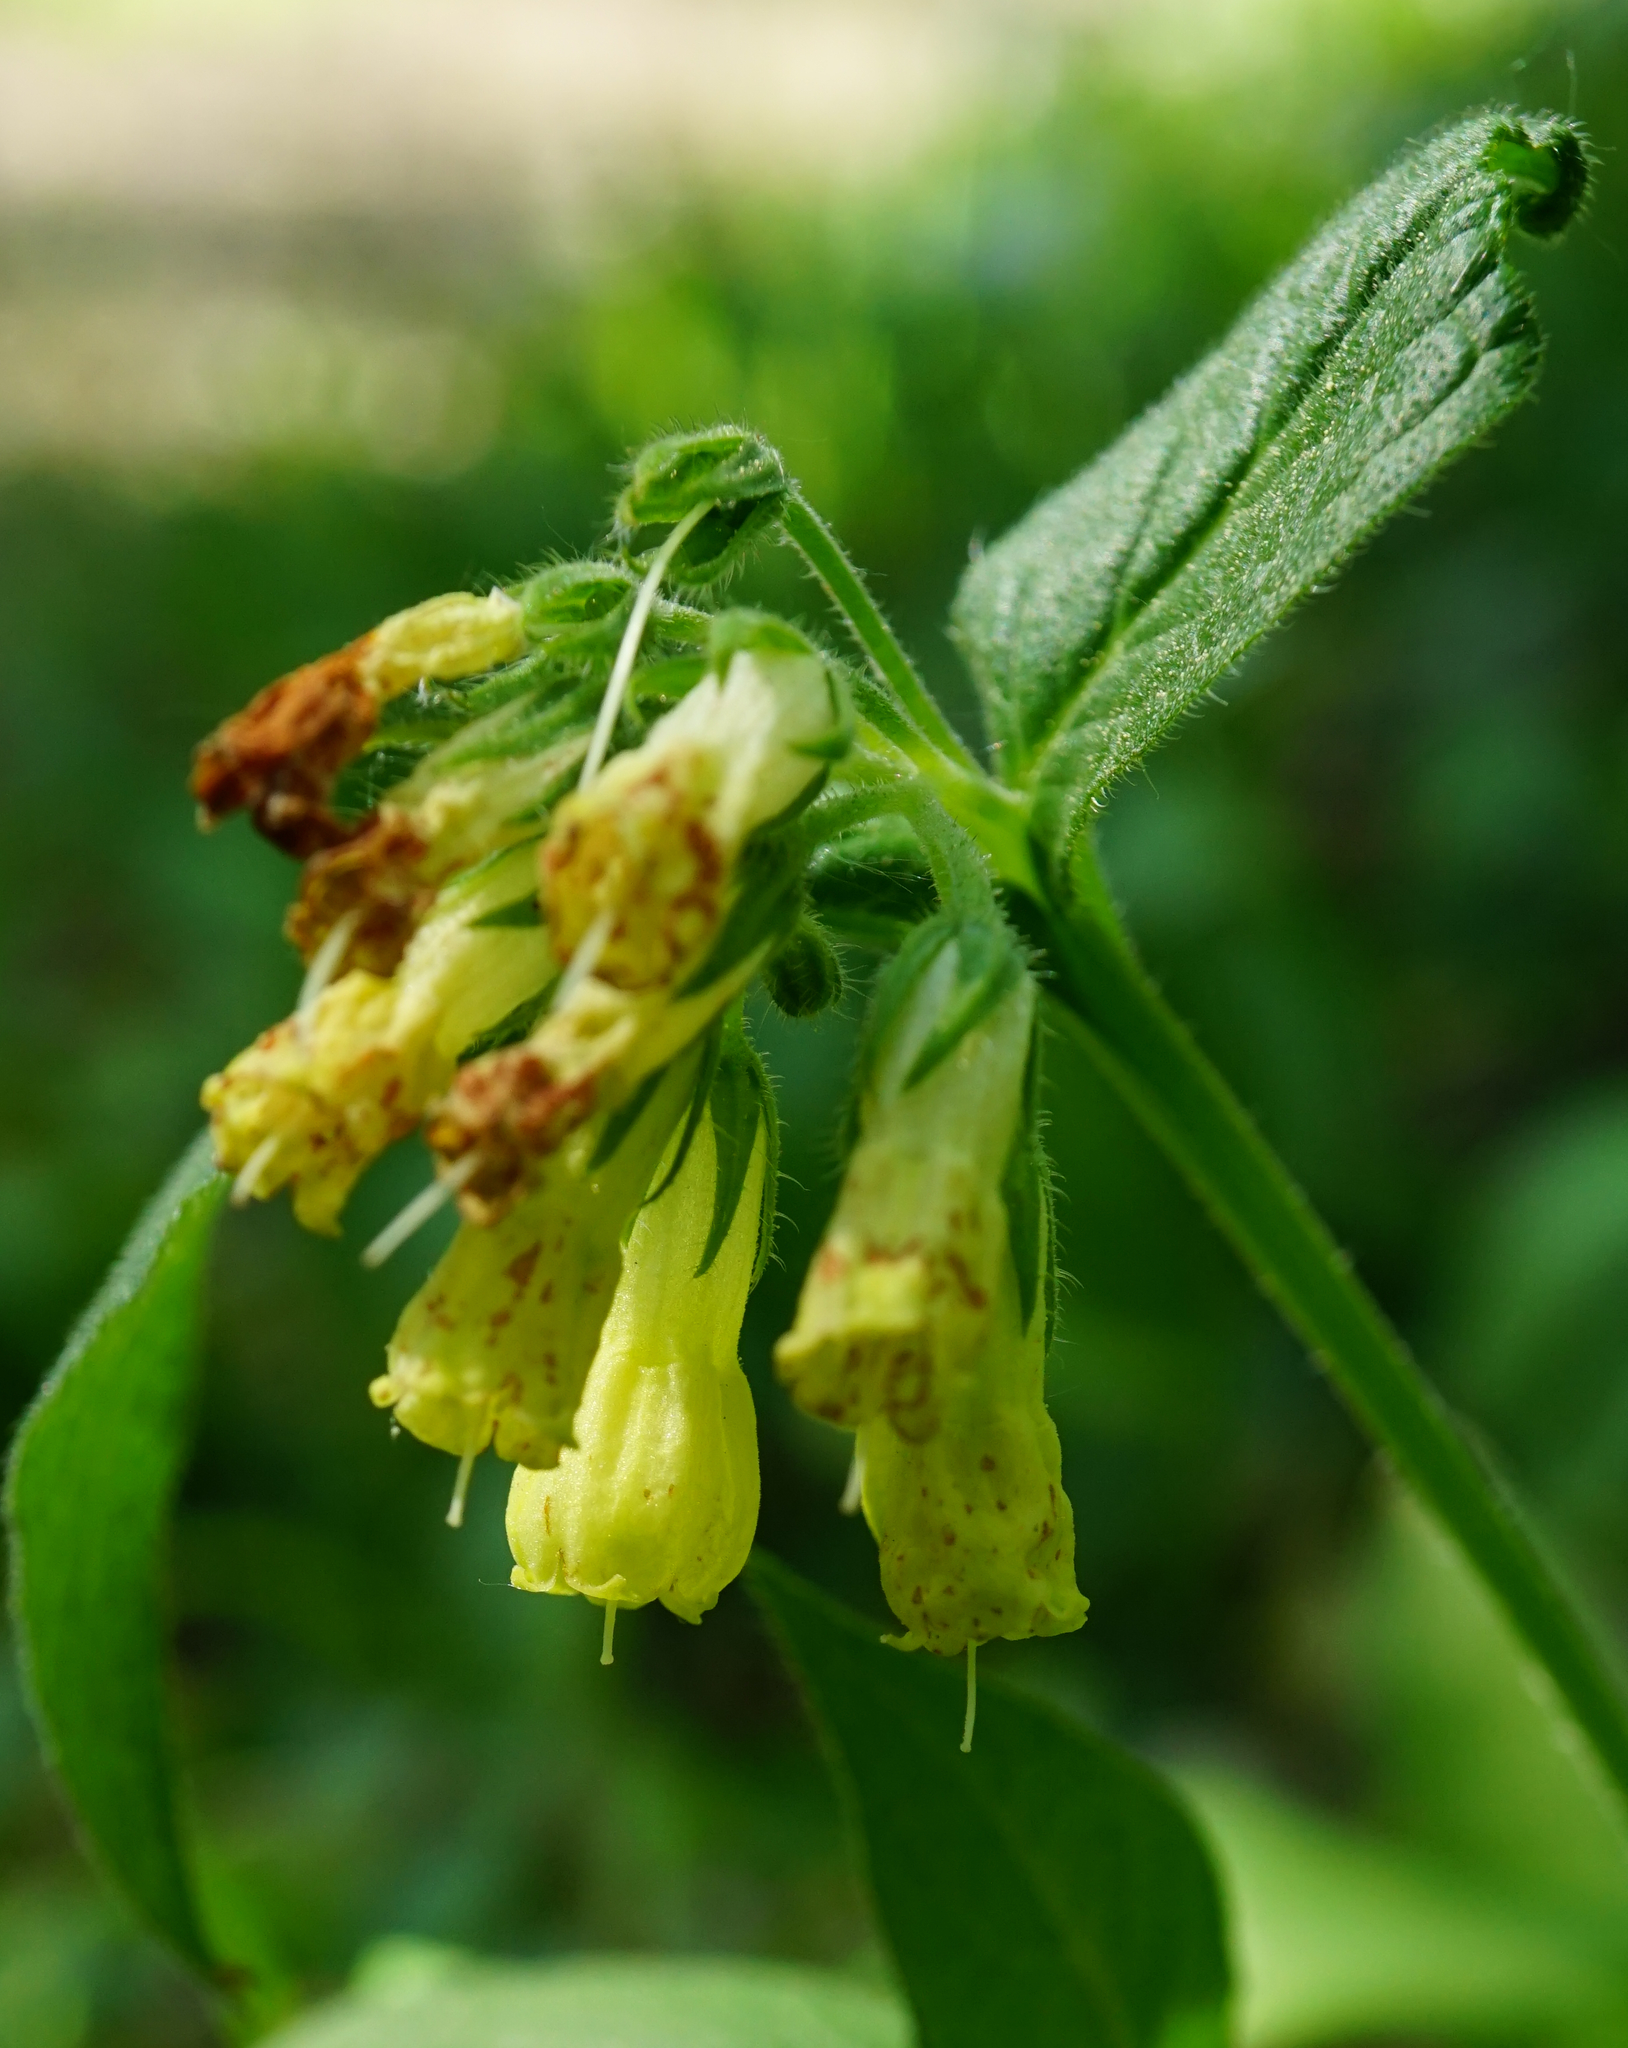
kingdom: Plantae
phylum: Tracheophyta
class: Magnoliopsida
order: Boraginales
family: Boraginaceae
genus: Symphytum
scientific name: Symphytum tuberosum
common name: Tuberous comfrey
